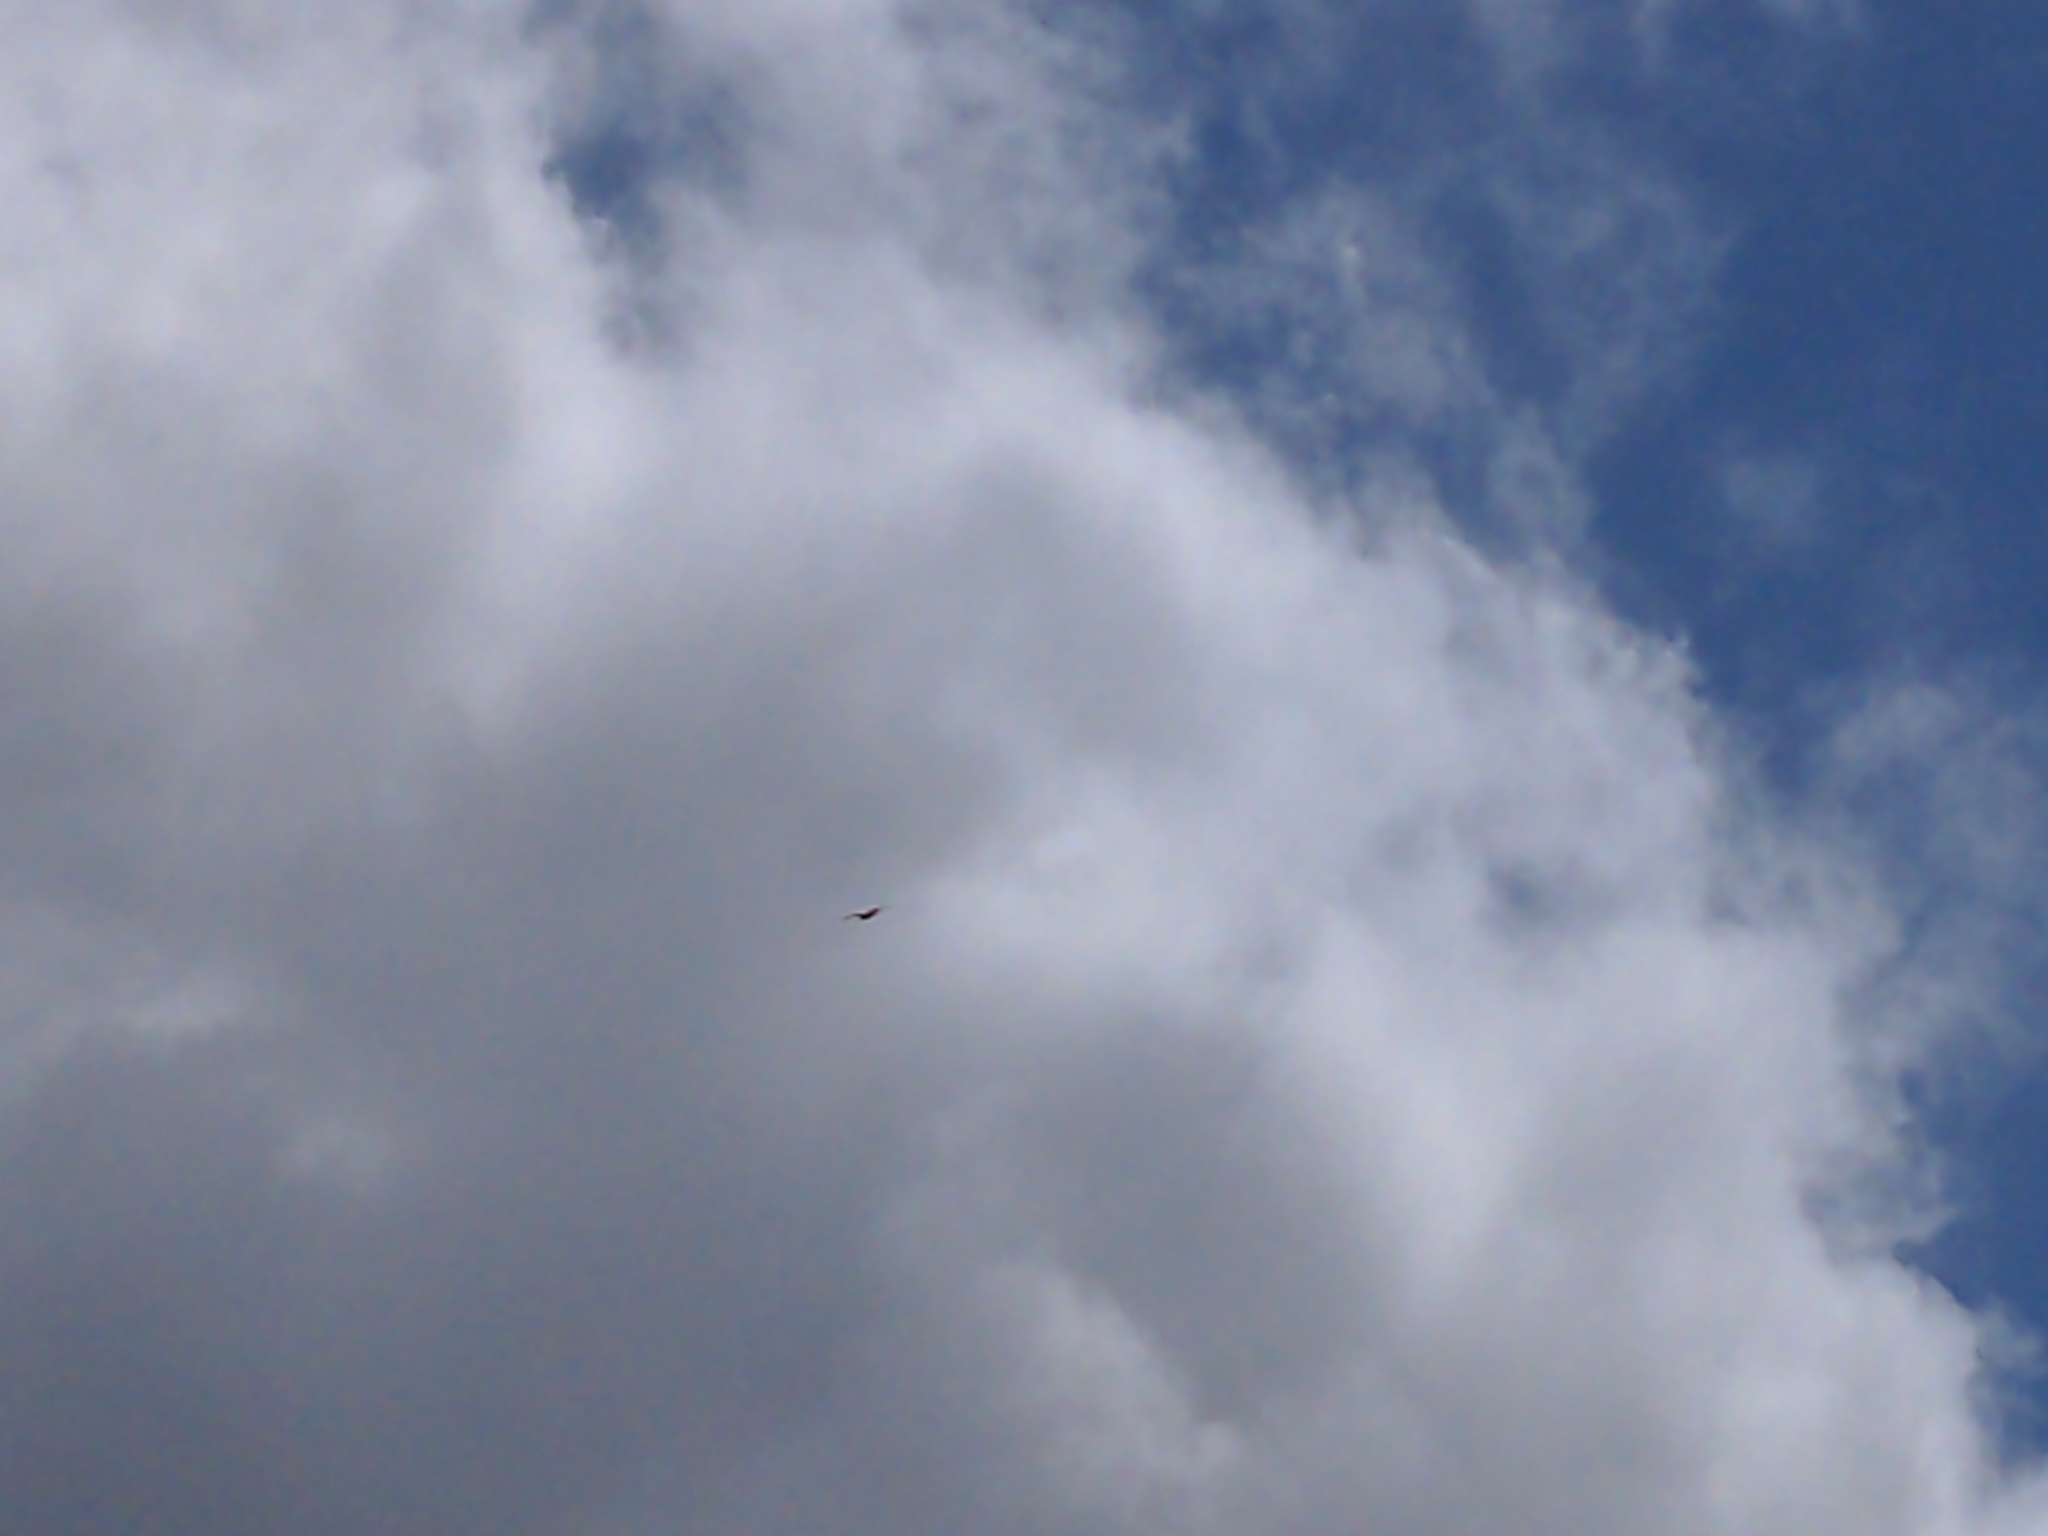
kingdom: Animalia
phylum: Chordata
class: Aves
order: Accipitriformes
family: Accipitridae
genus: Haliastur
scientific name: Haliastur sphenurus
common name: Whistling kite
